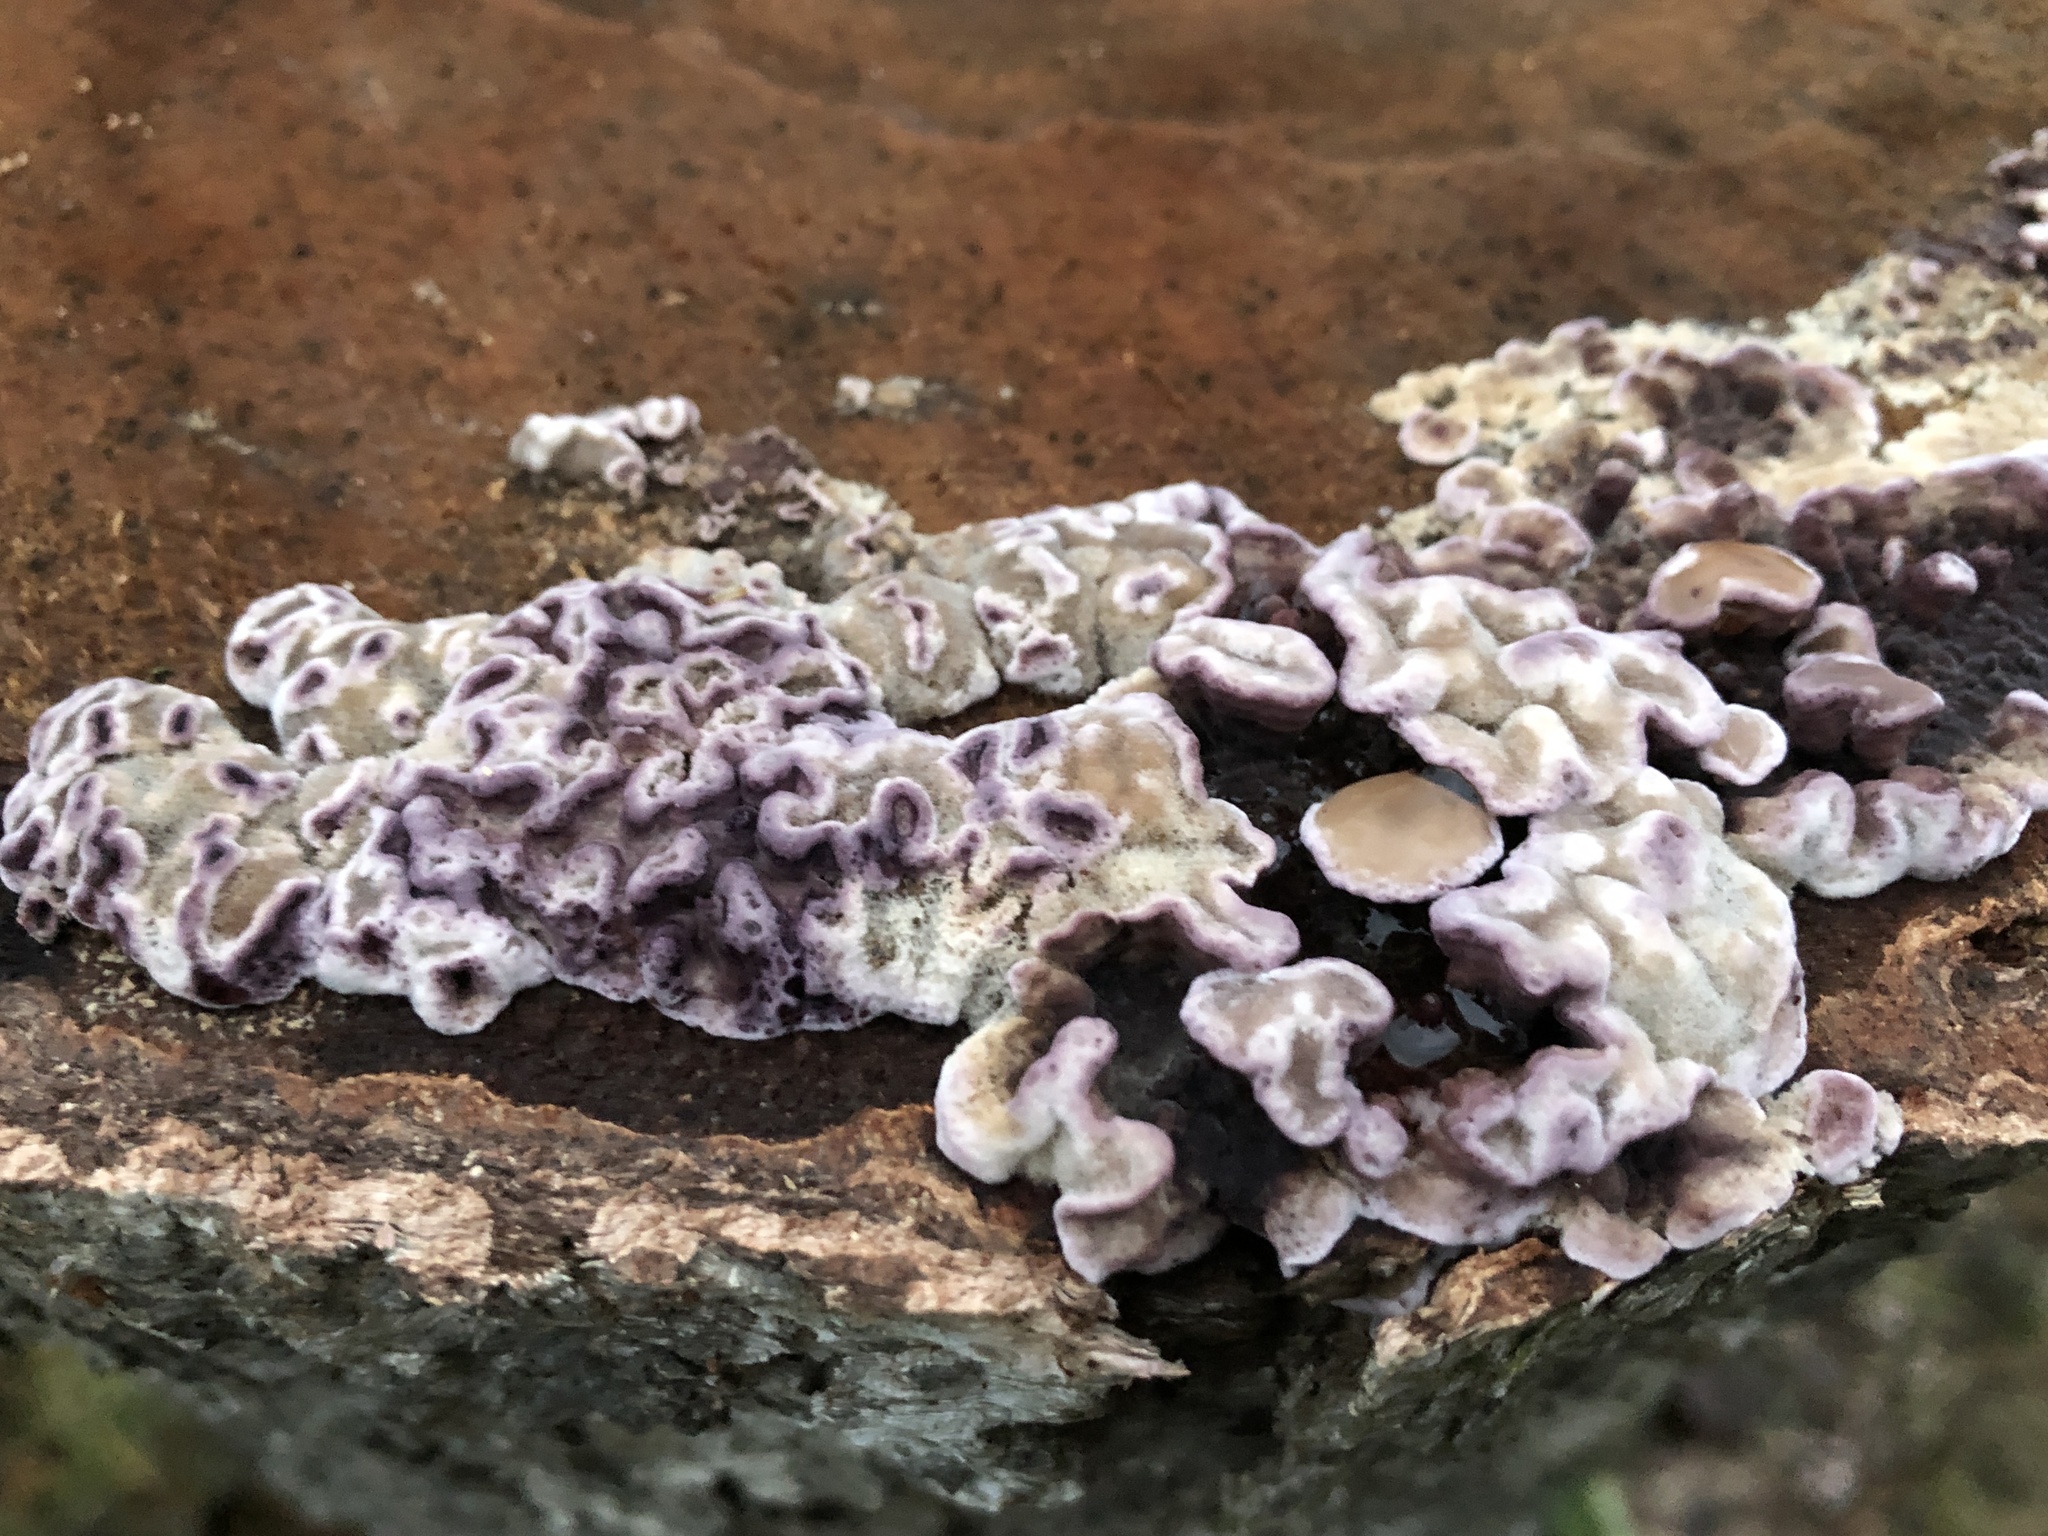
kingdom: Fungi
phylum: Basidiomycota
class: Agaricomycetes
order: Agaricales
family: Cyphellaceae
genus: Chondrostereum
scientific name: Chondrostereum purpureum
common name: Silver leaf disease
